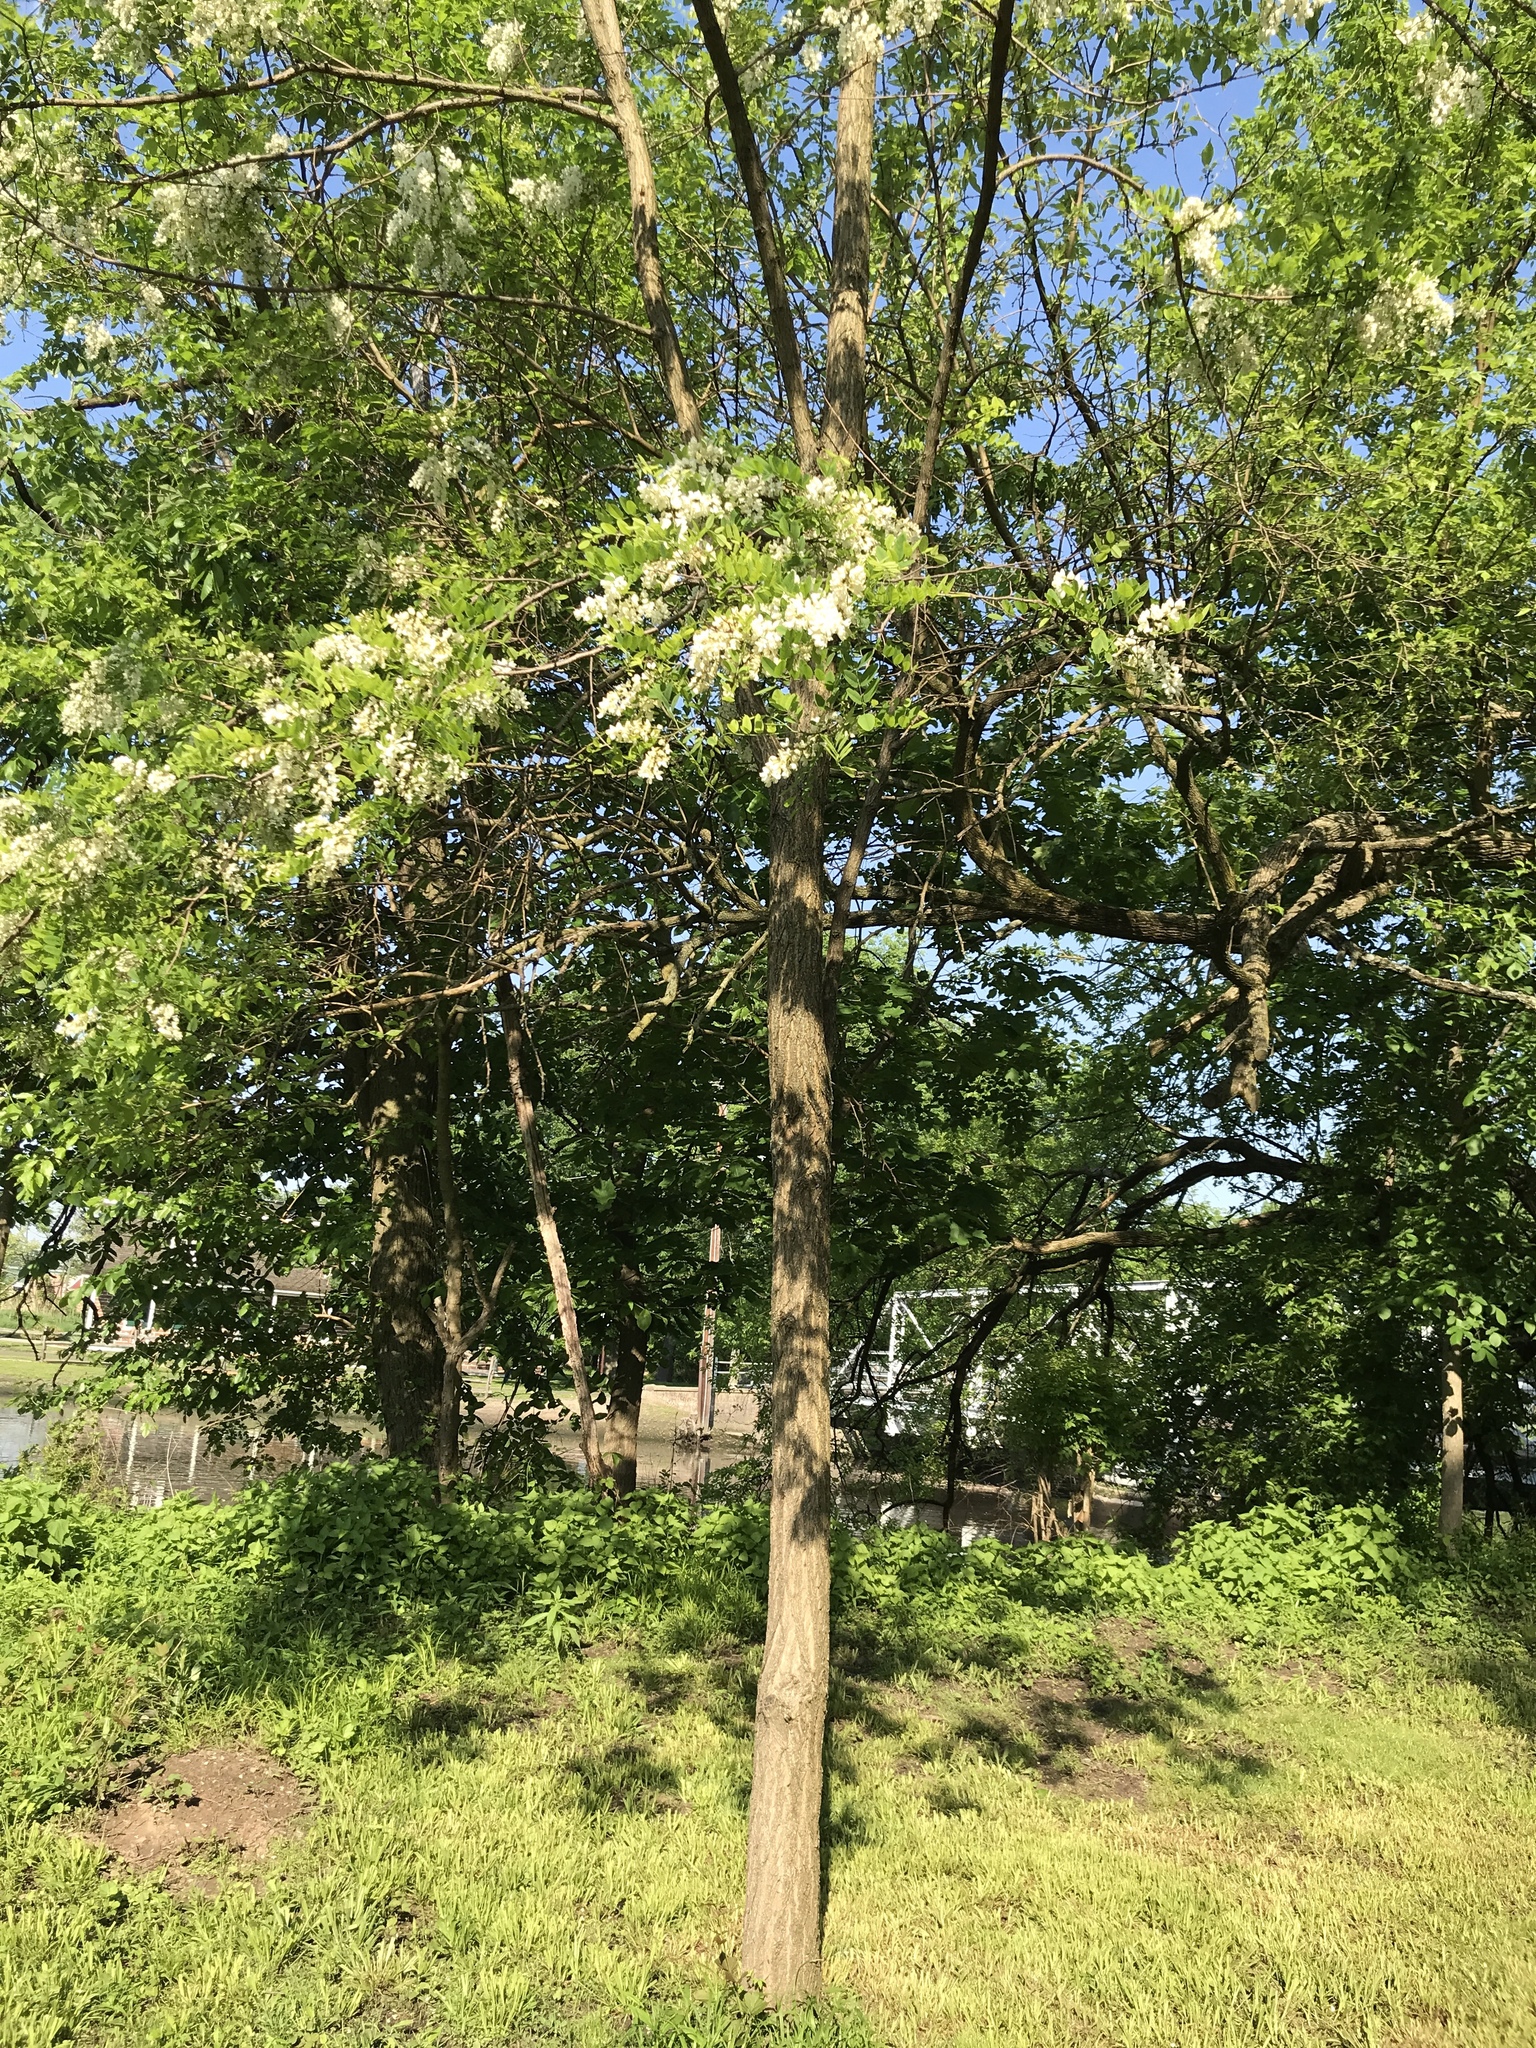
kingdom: Plantae
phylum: Tracheophyta
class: Magnoliopsida
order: Fabales
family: Fabaceae
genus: Robinia
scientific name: Robinia pseudoacacia
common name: Black locust
